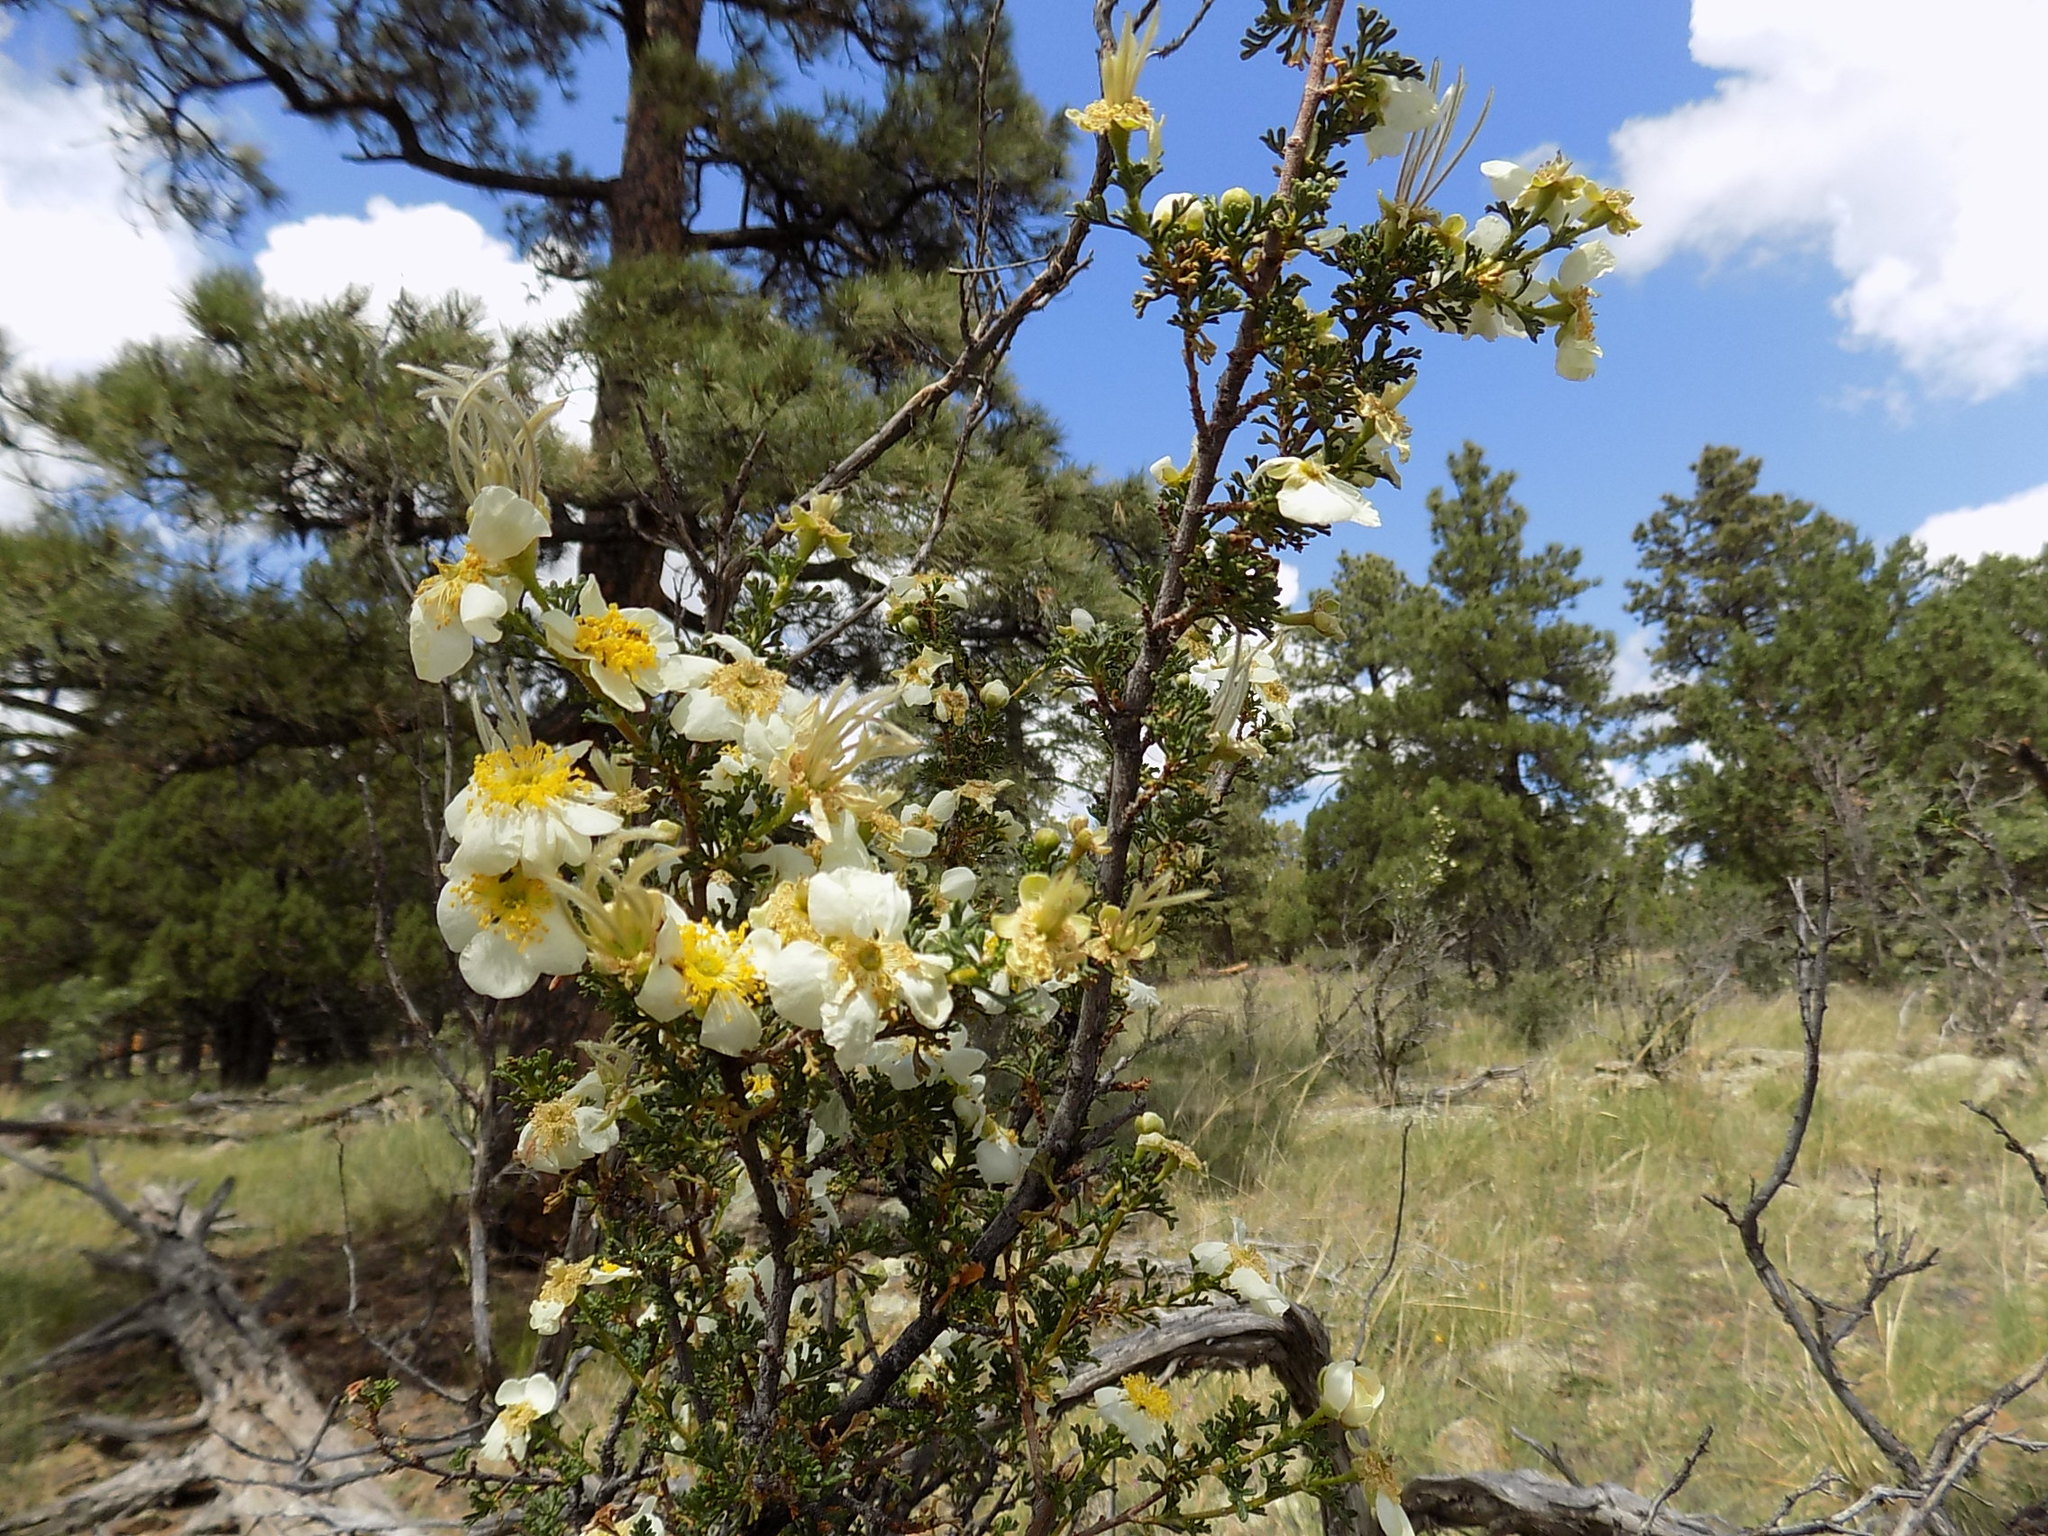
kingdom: Plantae
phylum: Tracheophyta
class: Magnoliopsida
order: Rosales
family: Rosaceae
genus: Purshia
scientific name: Purshia stansburiana
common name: Stansbury's cliffrose
